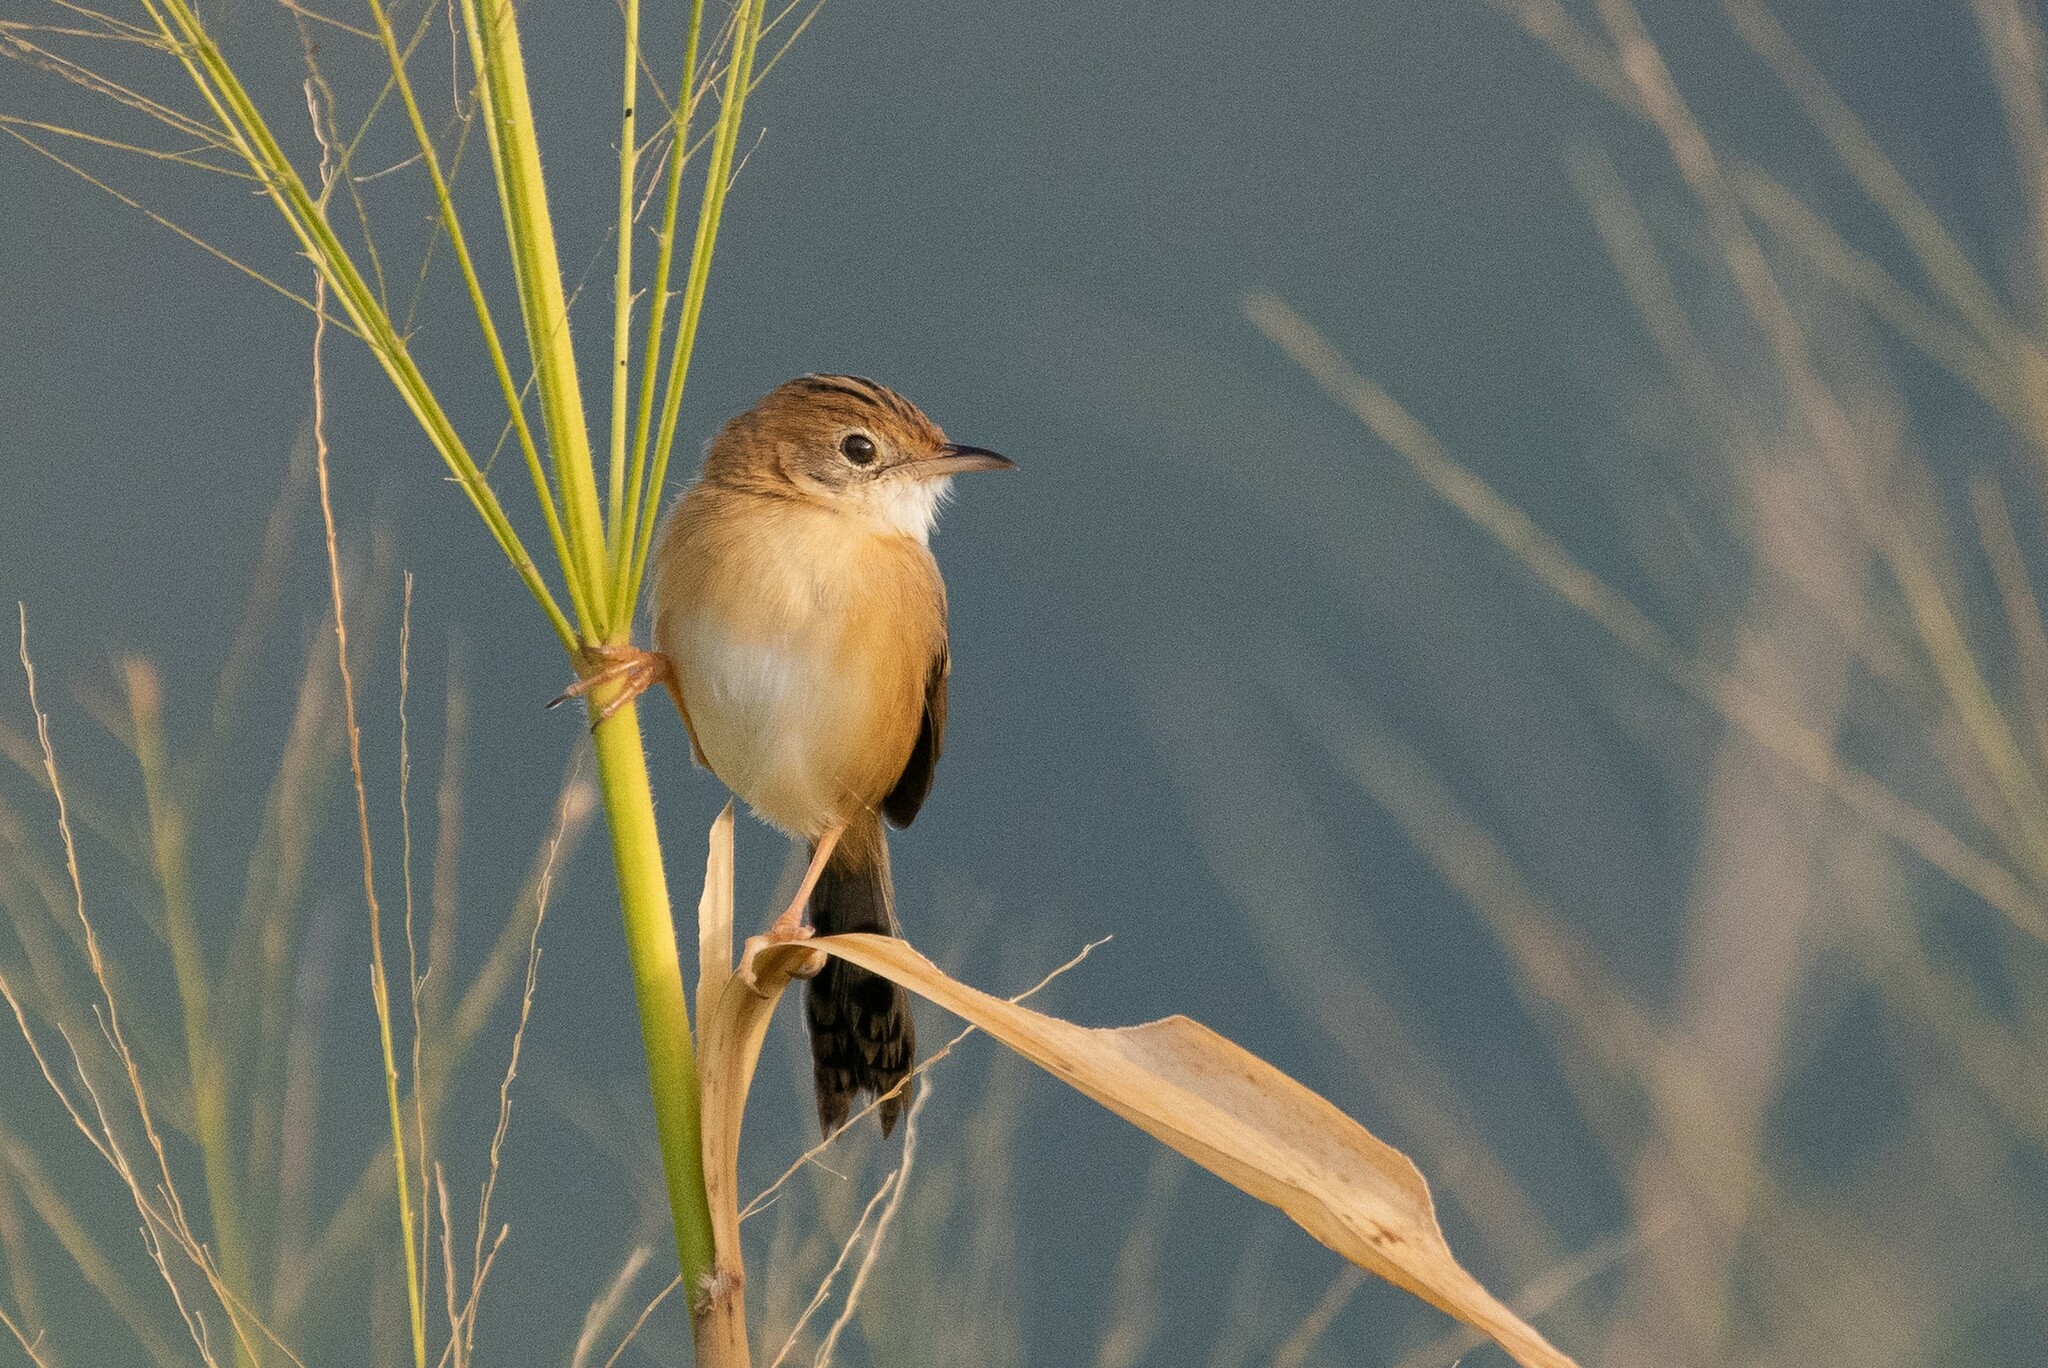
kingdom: Animalia
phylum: Chordata
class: Aves
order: Passeriformes
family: Cisticolidae
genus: Cisticola
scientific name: Cisticola exilis
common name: Golden-headed cisticola
